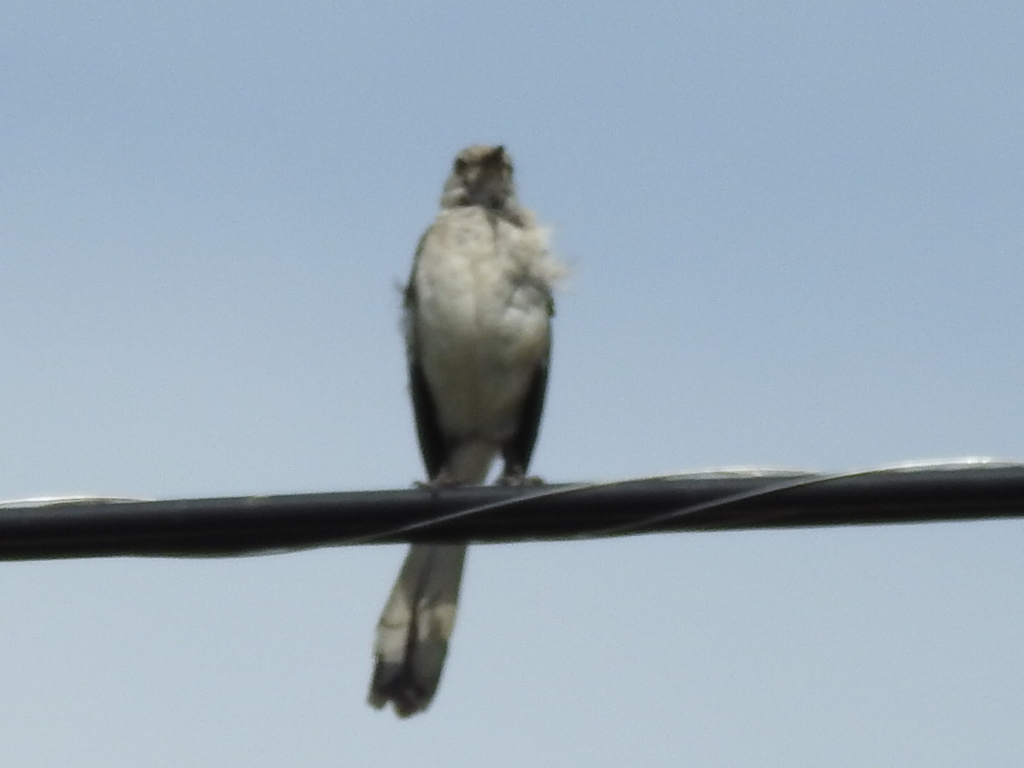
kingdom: Animalia
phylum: Chordata
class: Aves
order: Passeriformes
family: Mimidae
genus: Mimus
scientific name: Mimus polyglottos
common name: Northern mockingbird
